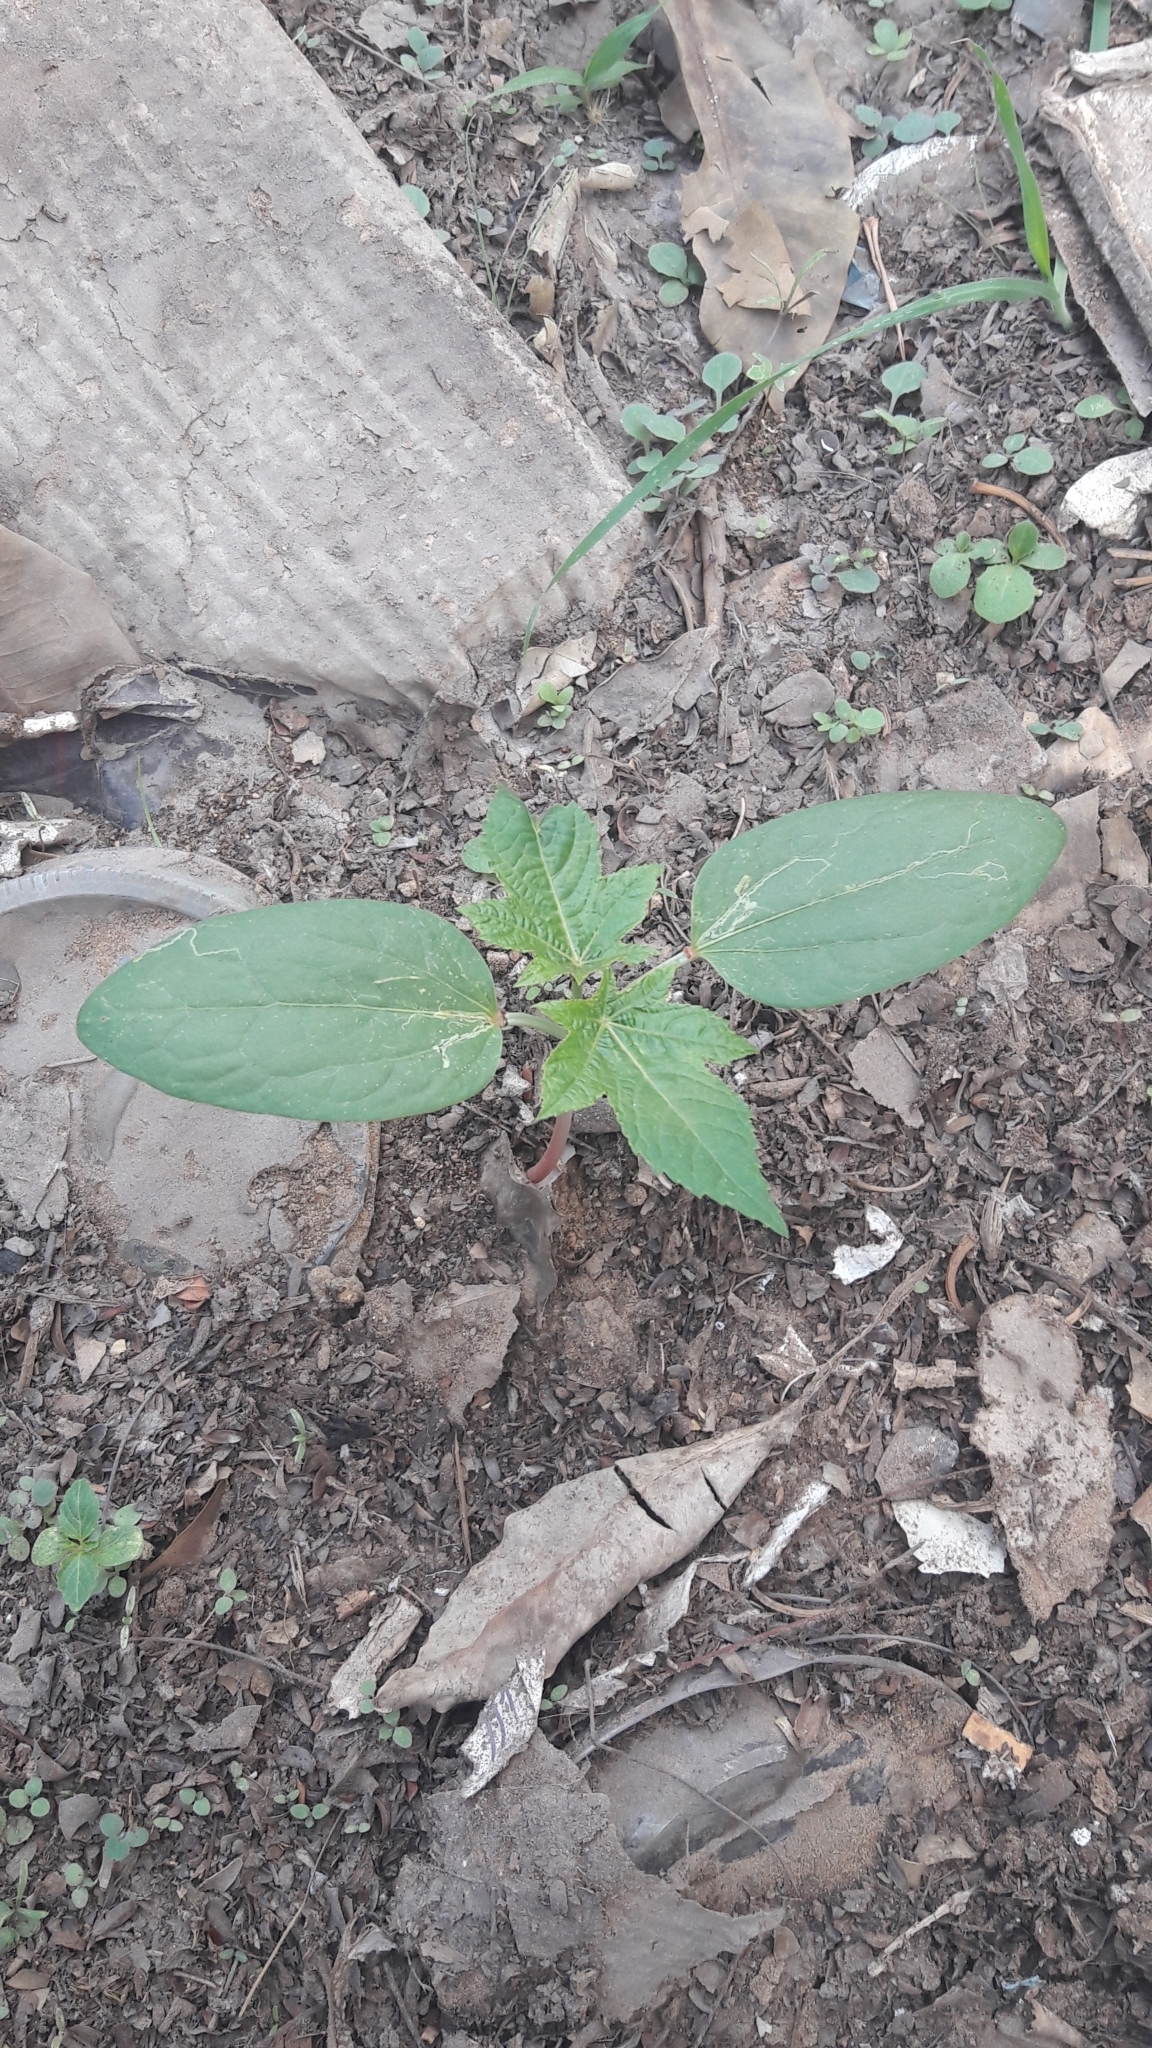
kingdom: Plantae
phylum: Tracheophyta
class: Magnoliopsida
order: Malpighiales
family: Euphorbiaceae
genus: Ricinus
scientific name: Ricinus communis
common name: Castor-oil-plant
